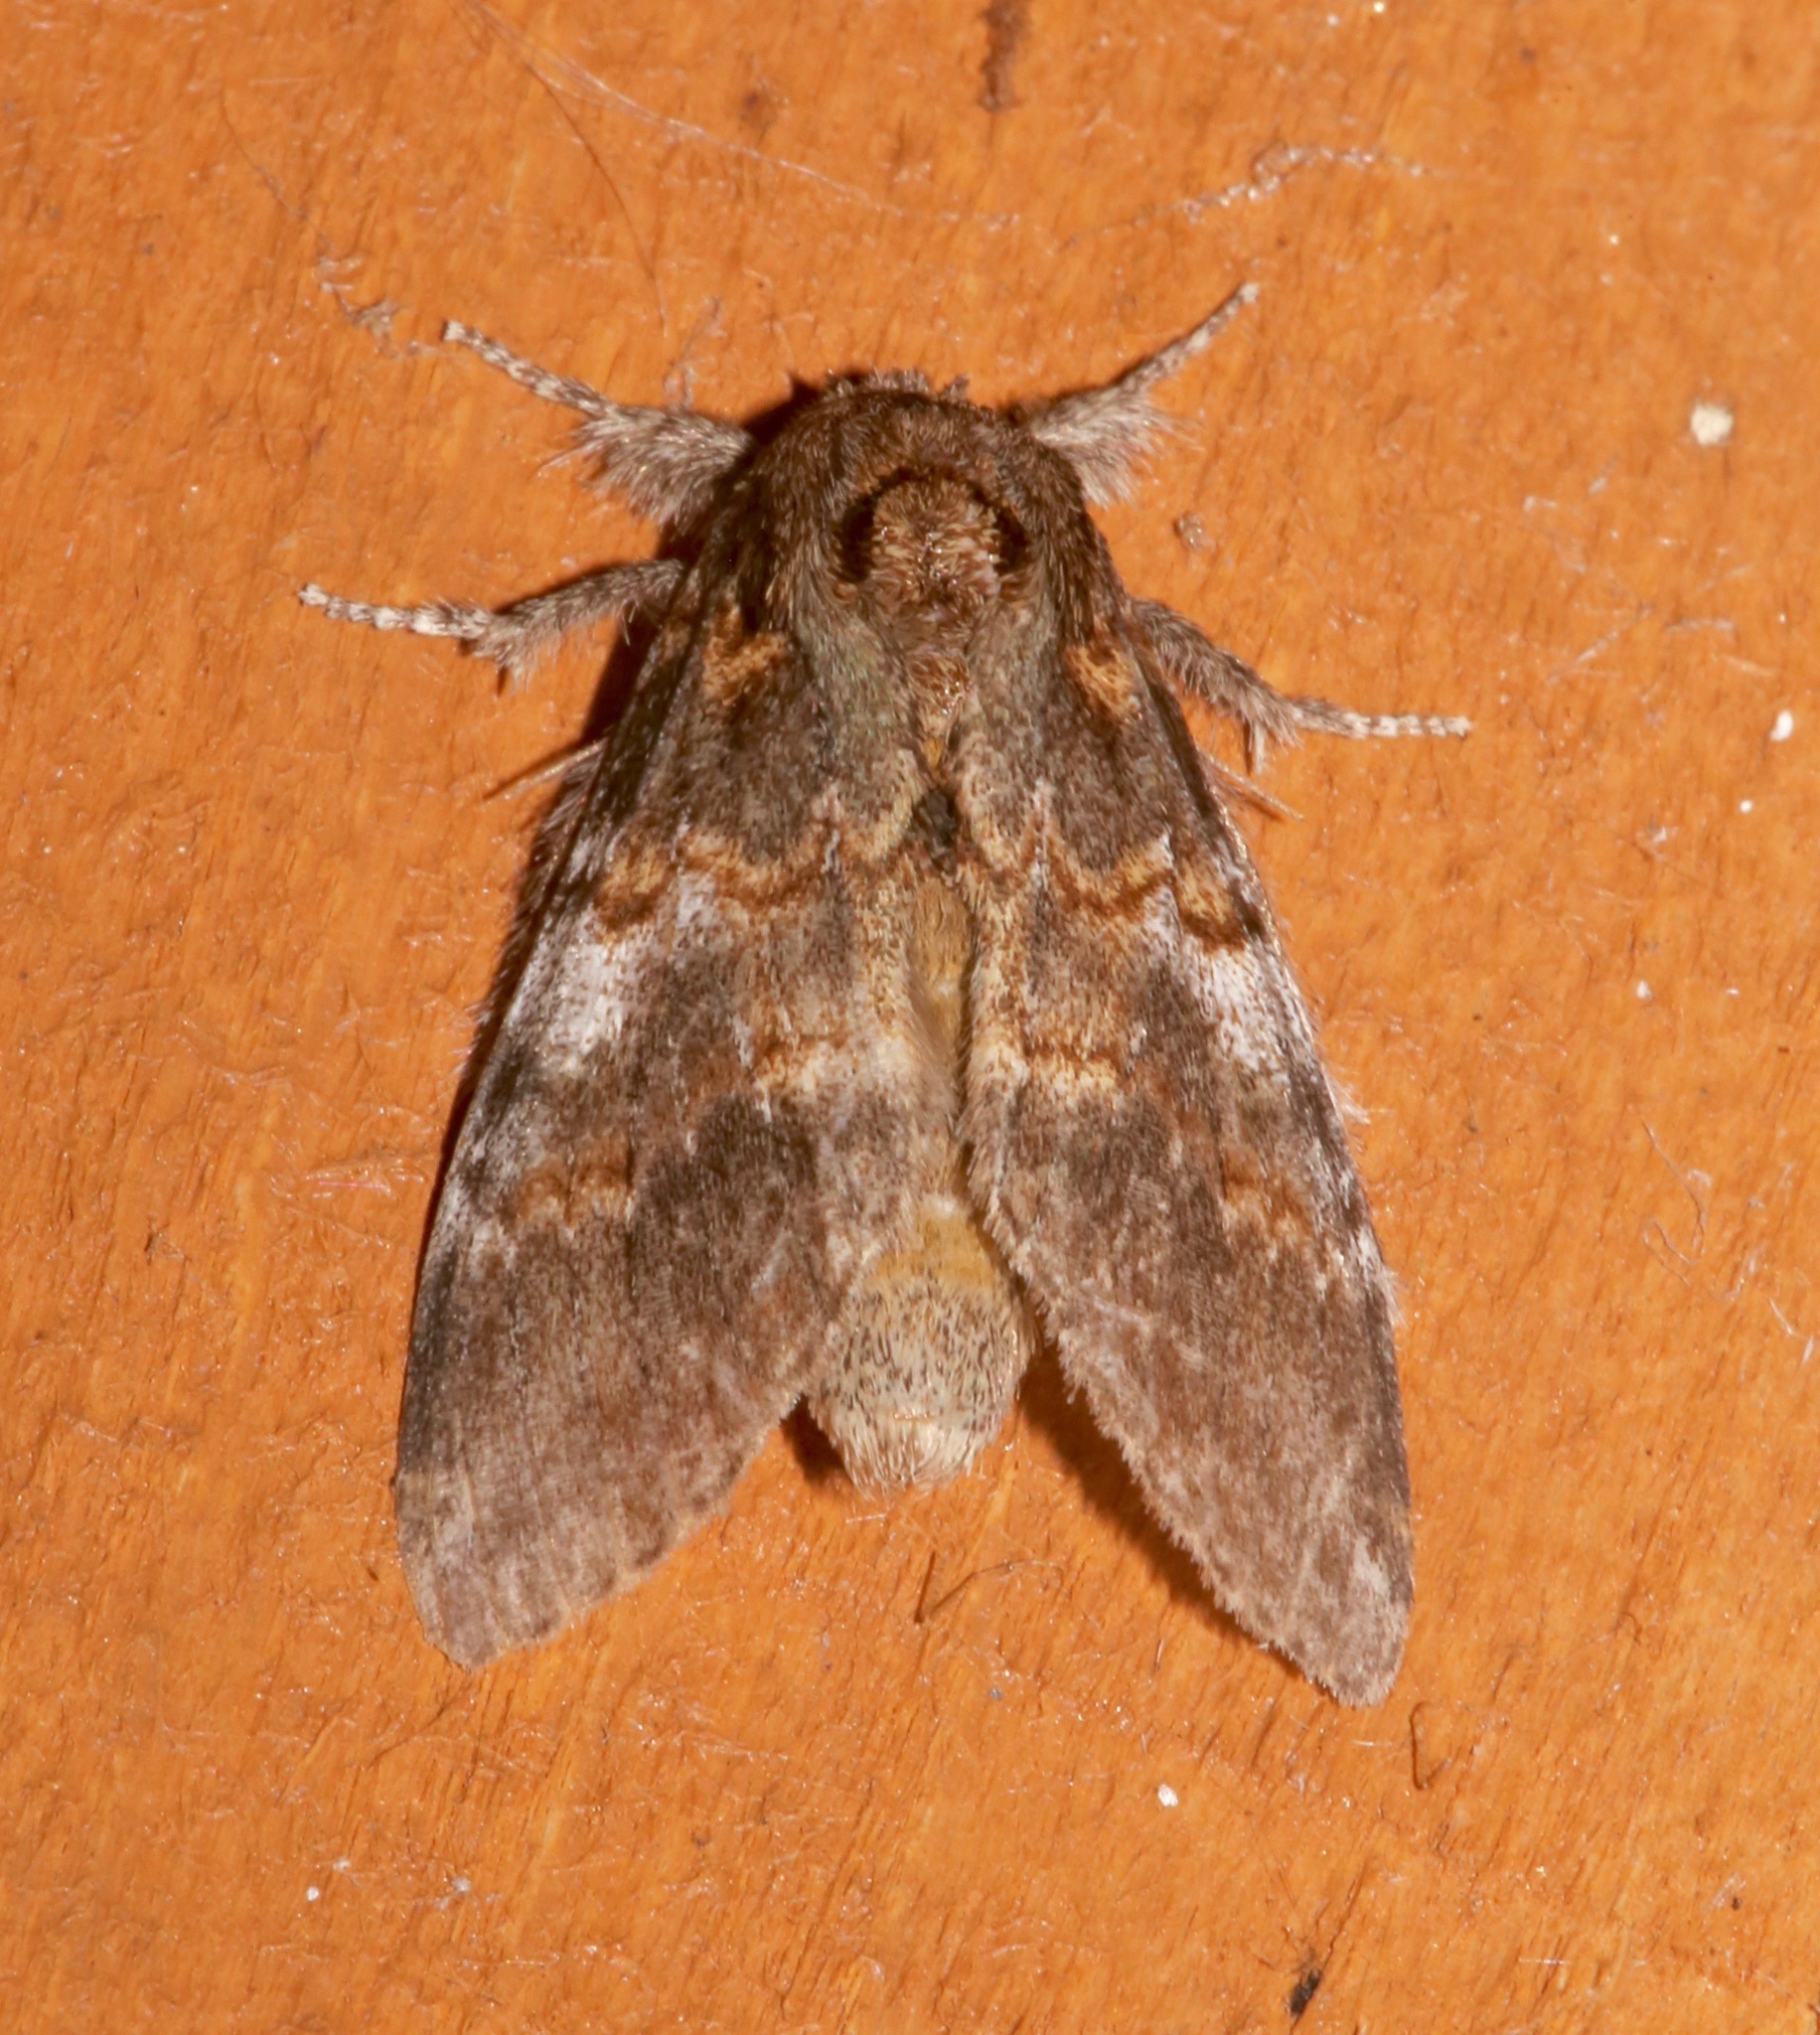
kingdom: Animalia
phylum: Arthropoda
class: Insecta
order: Lepidoptera
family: Notodontidae
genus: Peridea
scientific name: Peridea angulosa
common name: Angulose prominent
